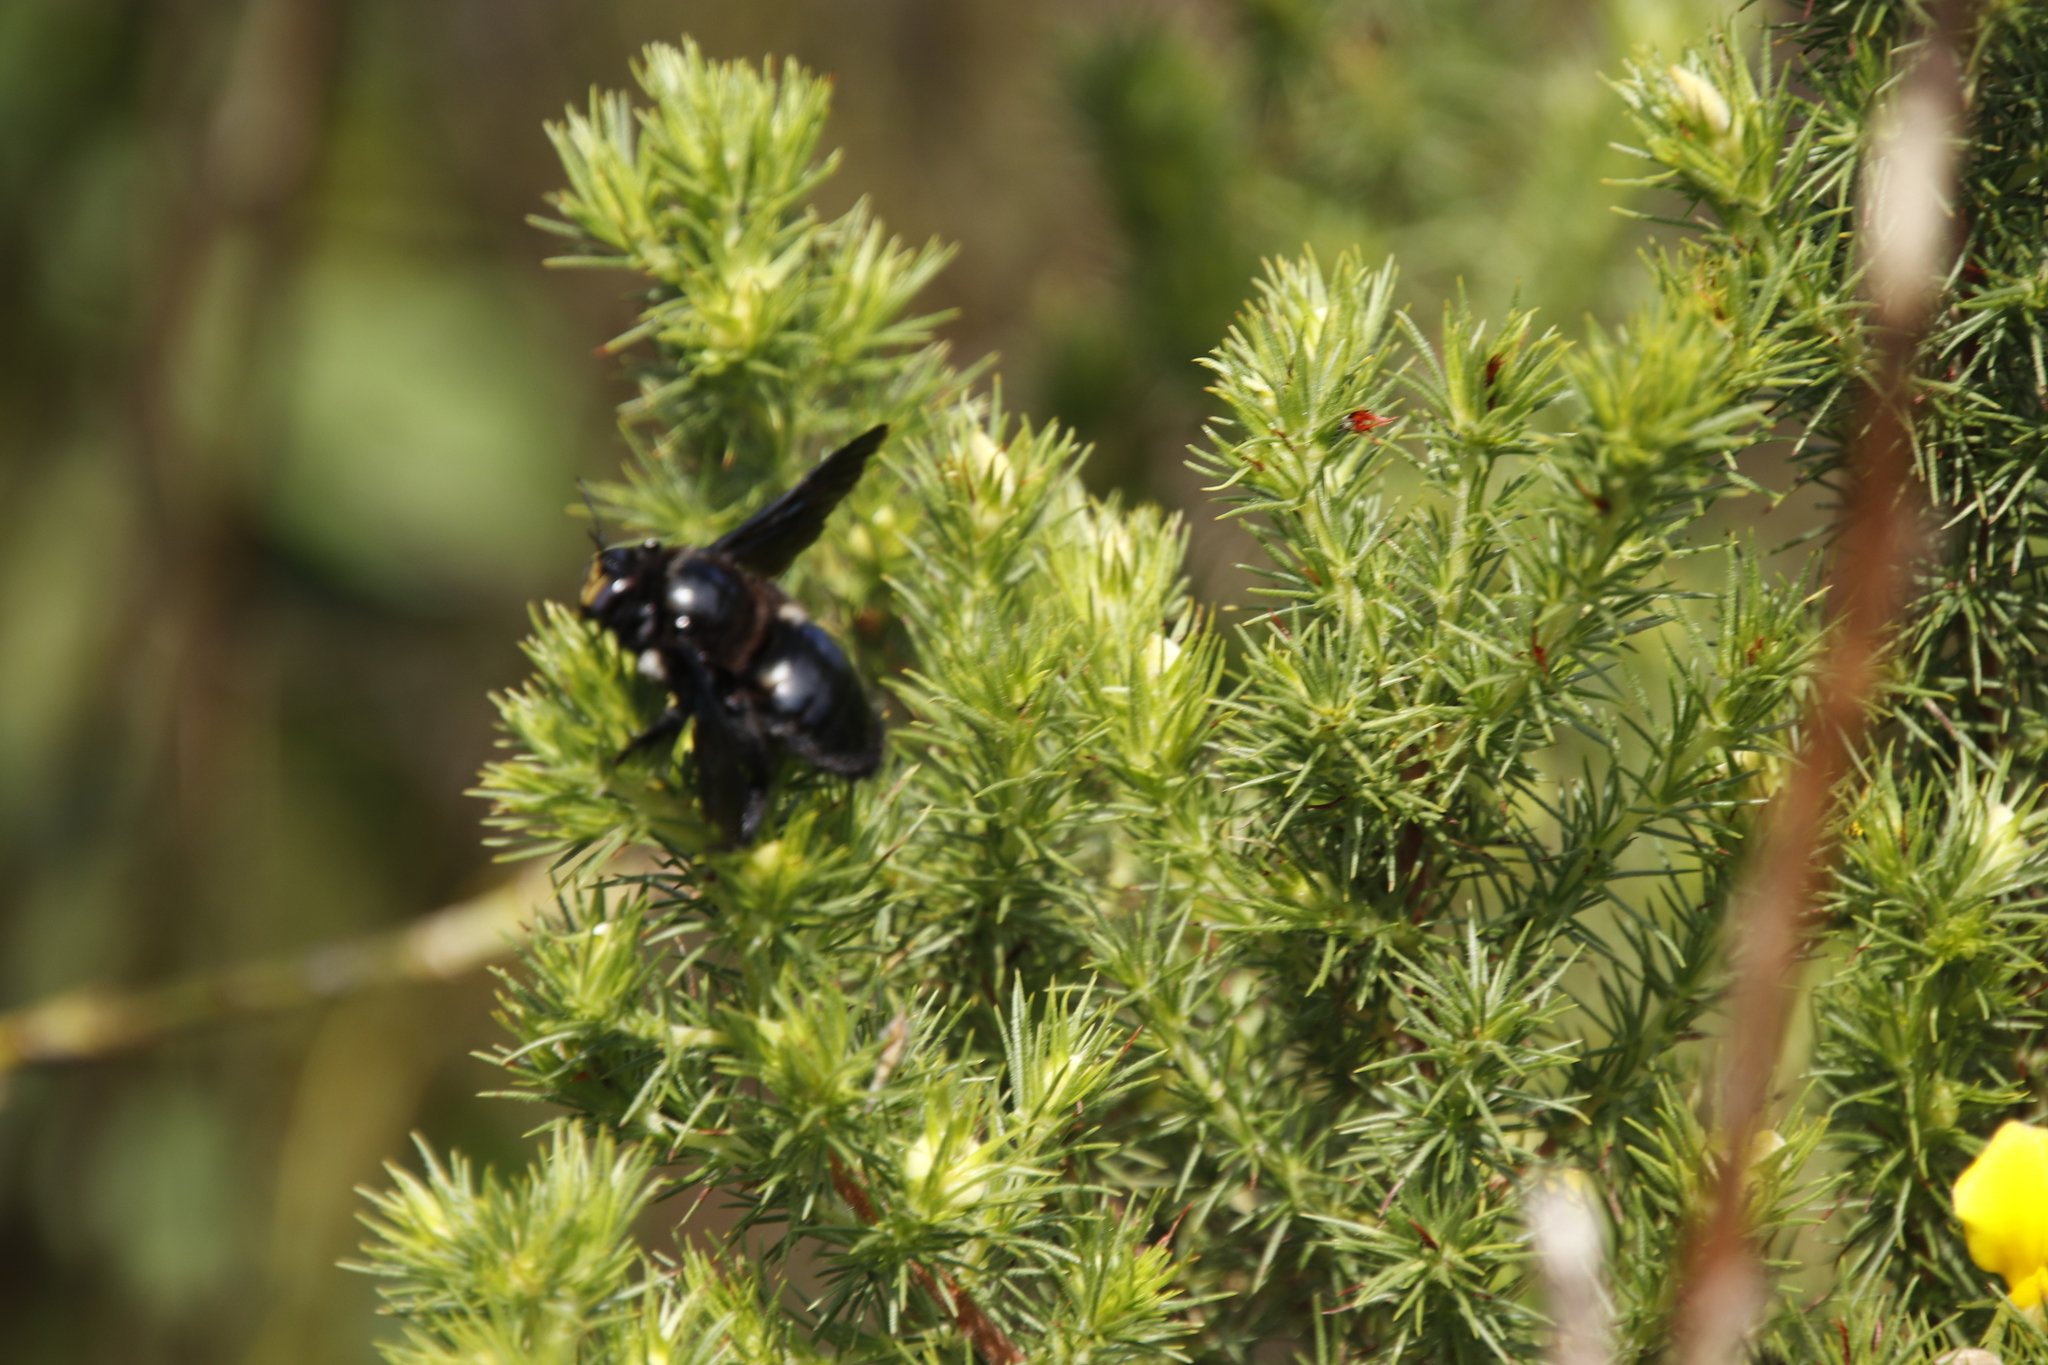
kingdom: Animalia
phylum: Arthropoda
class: Insecta
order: Hymenoptera
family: Apidae
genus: Xylocopa
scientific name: Xylocopa capitata
